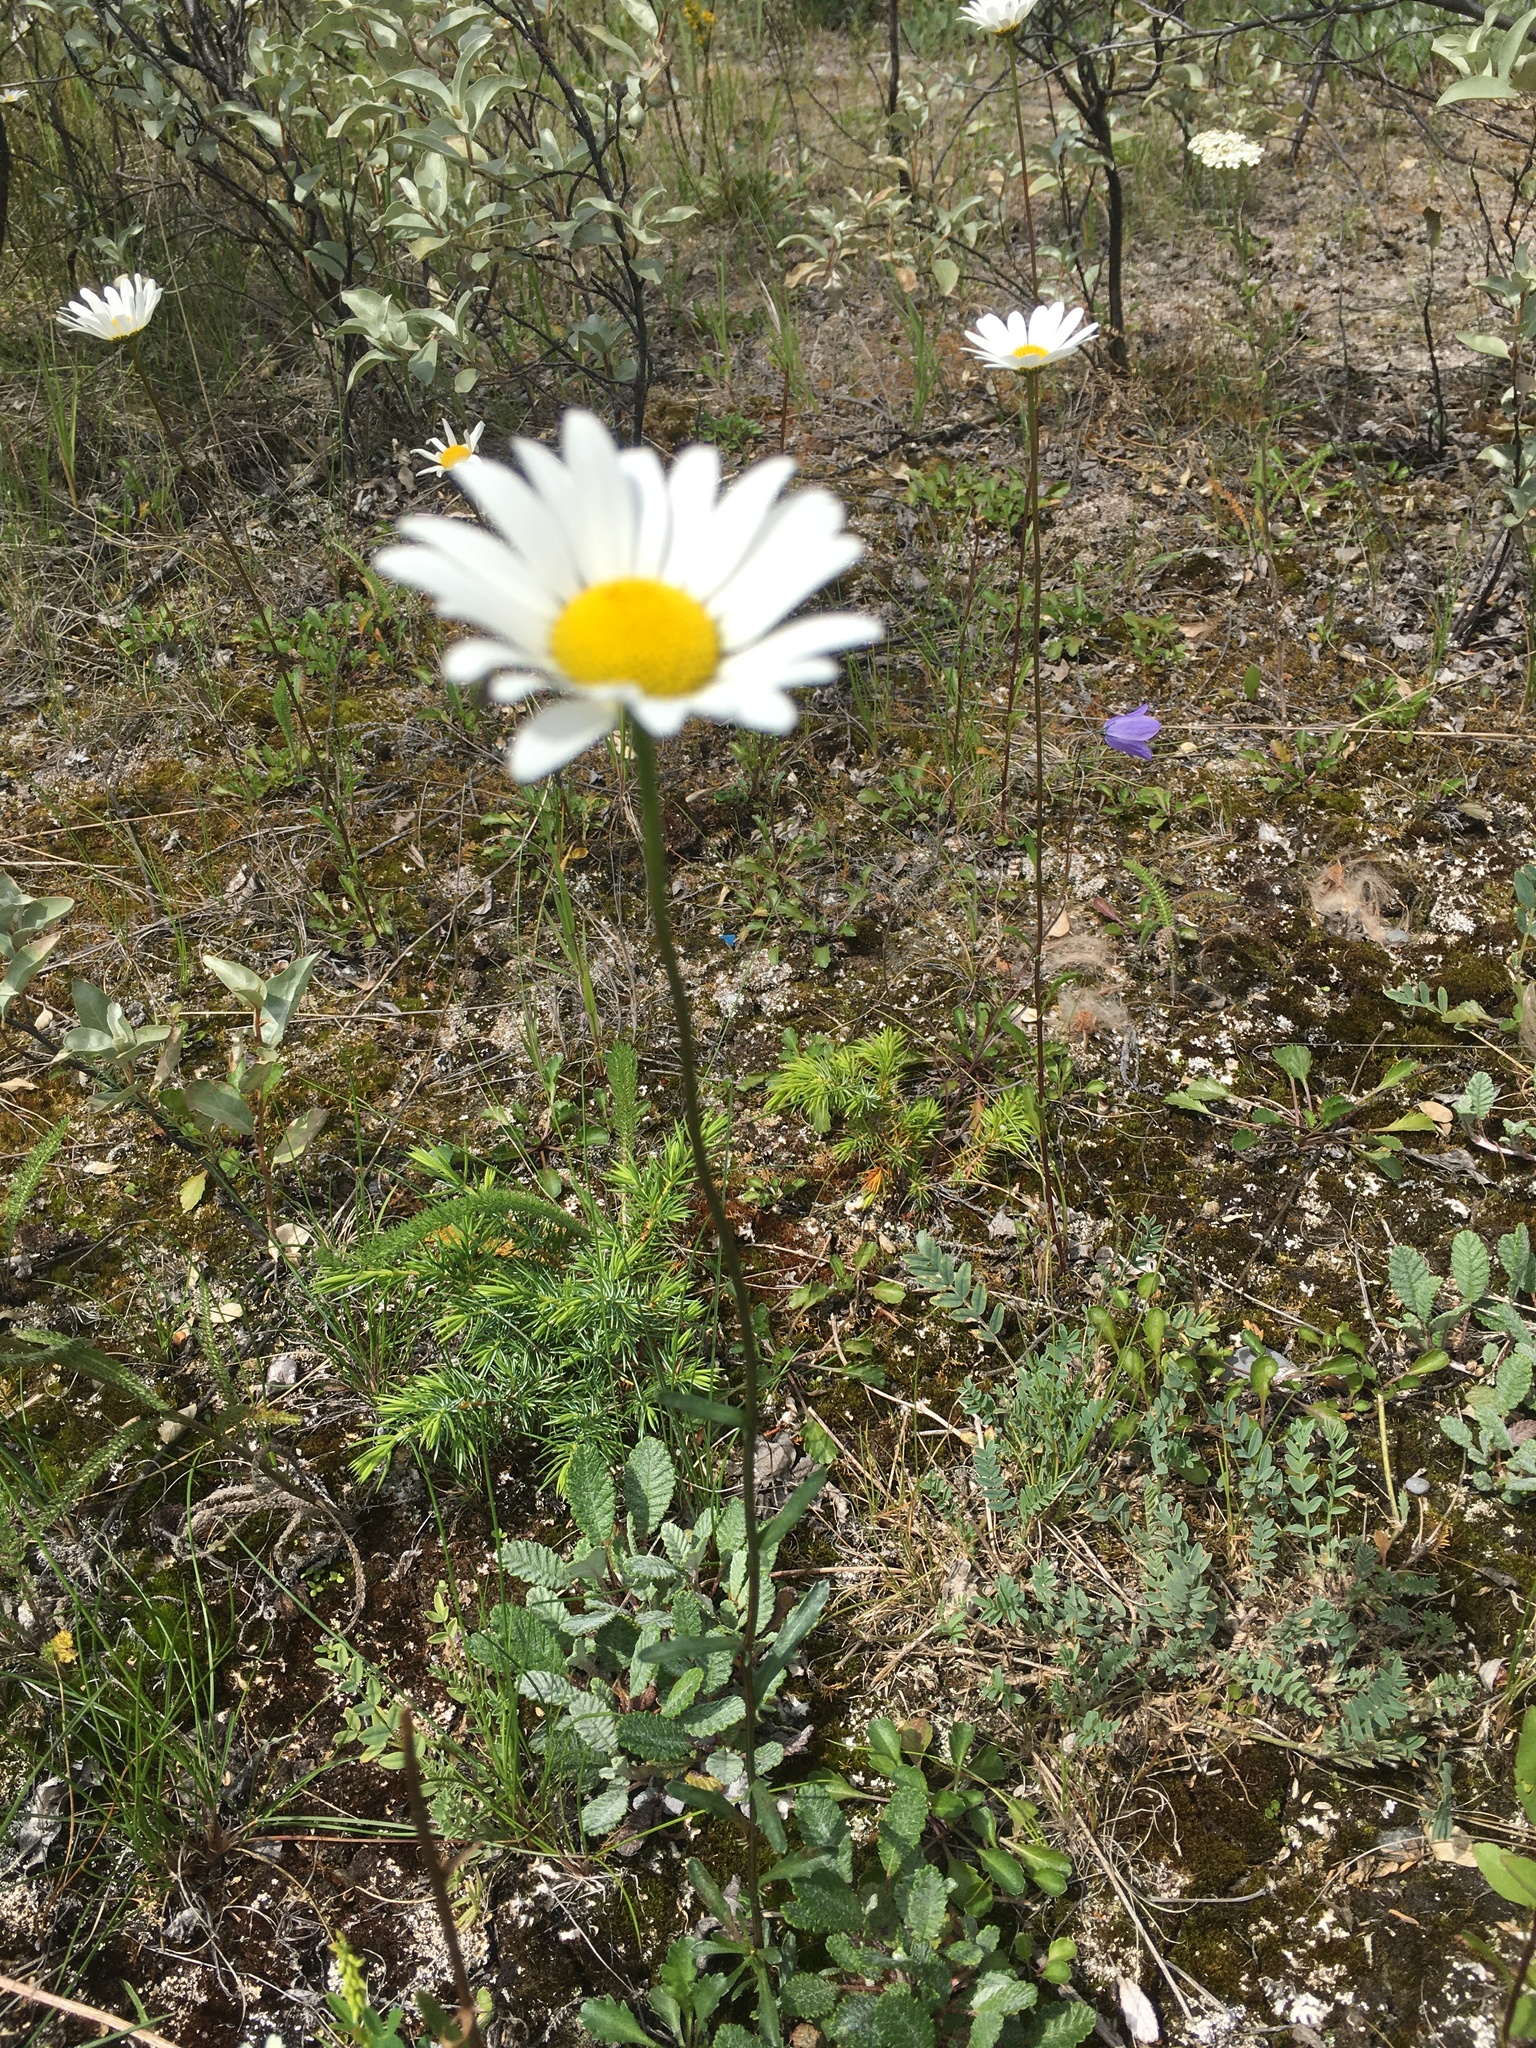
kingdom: Plantae
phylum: Tracheophyta
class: Magnoliopsida
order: Asterales
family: Asteraceae
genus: Leucanthemum
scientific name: Leucanthemum vulgare
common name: Oxeye daisy
